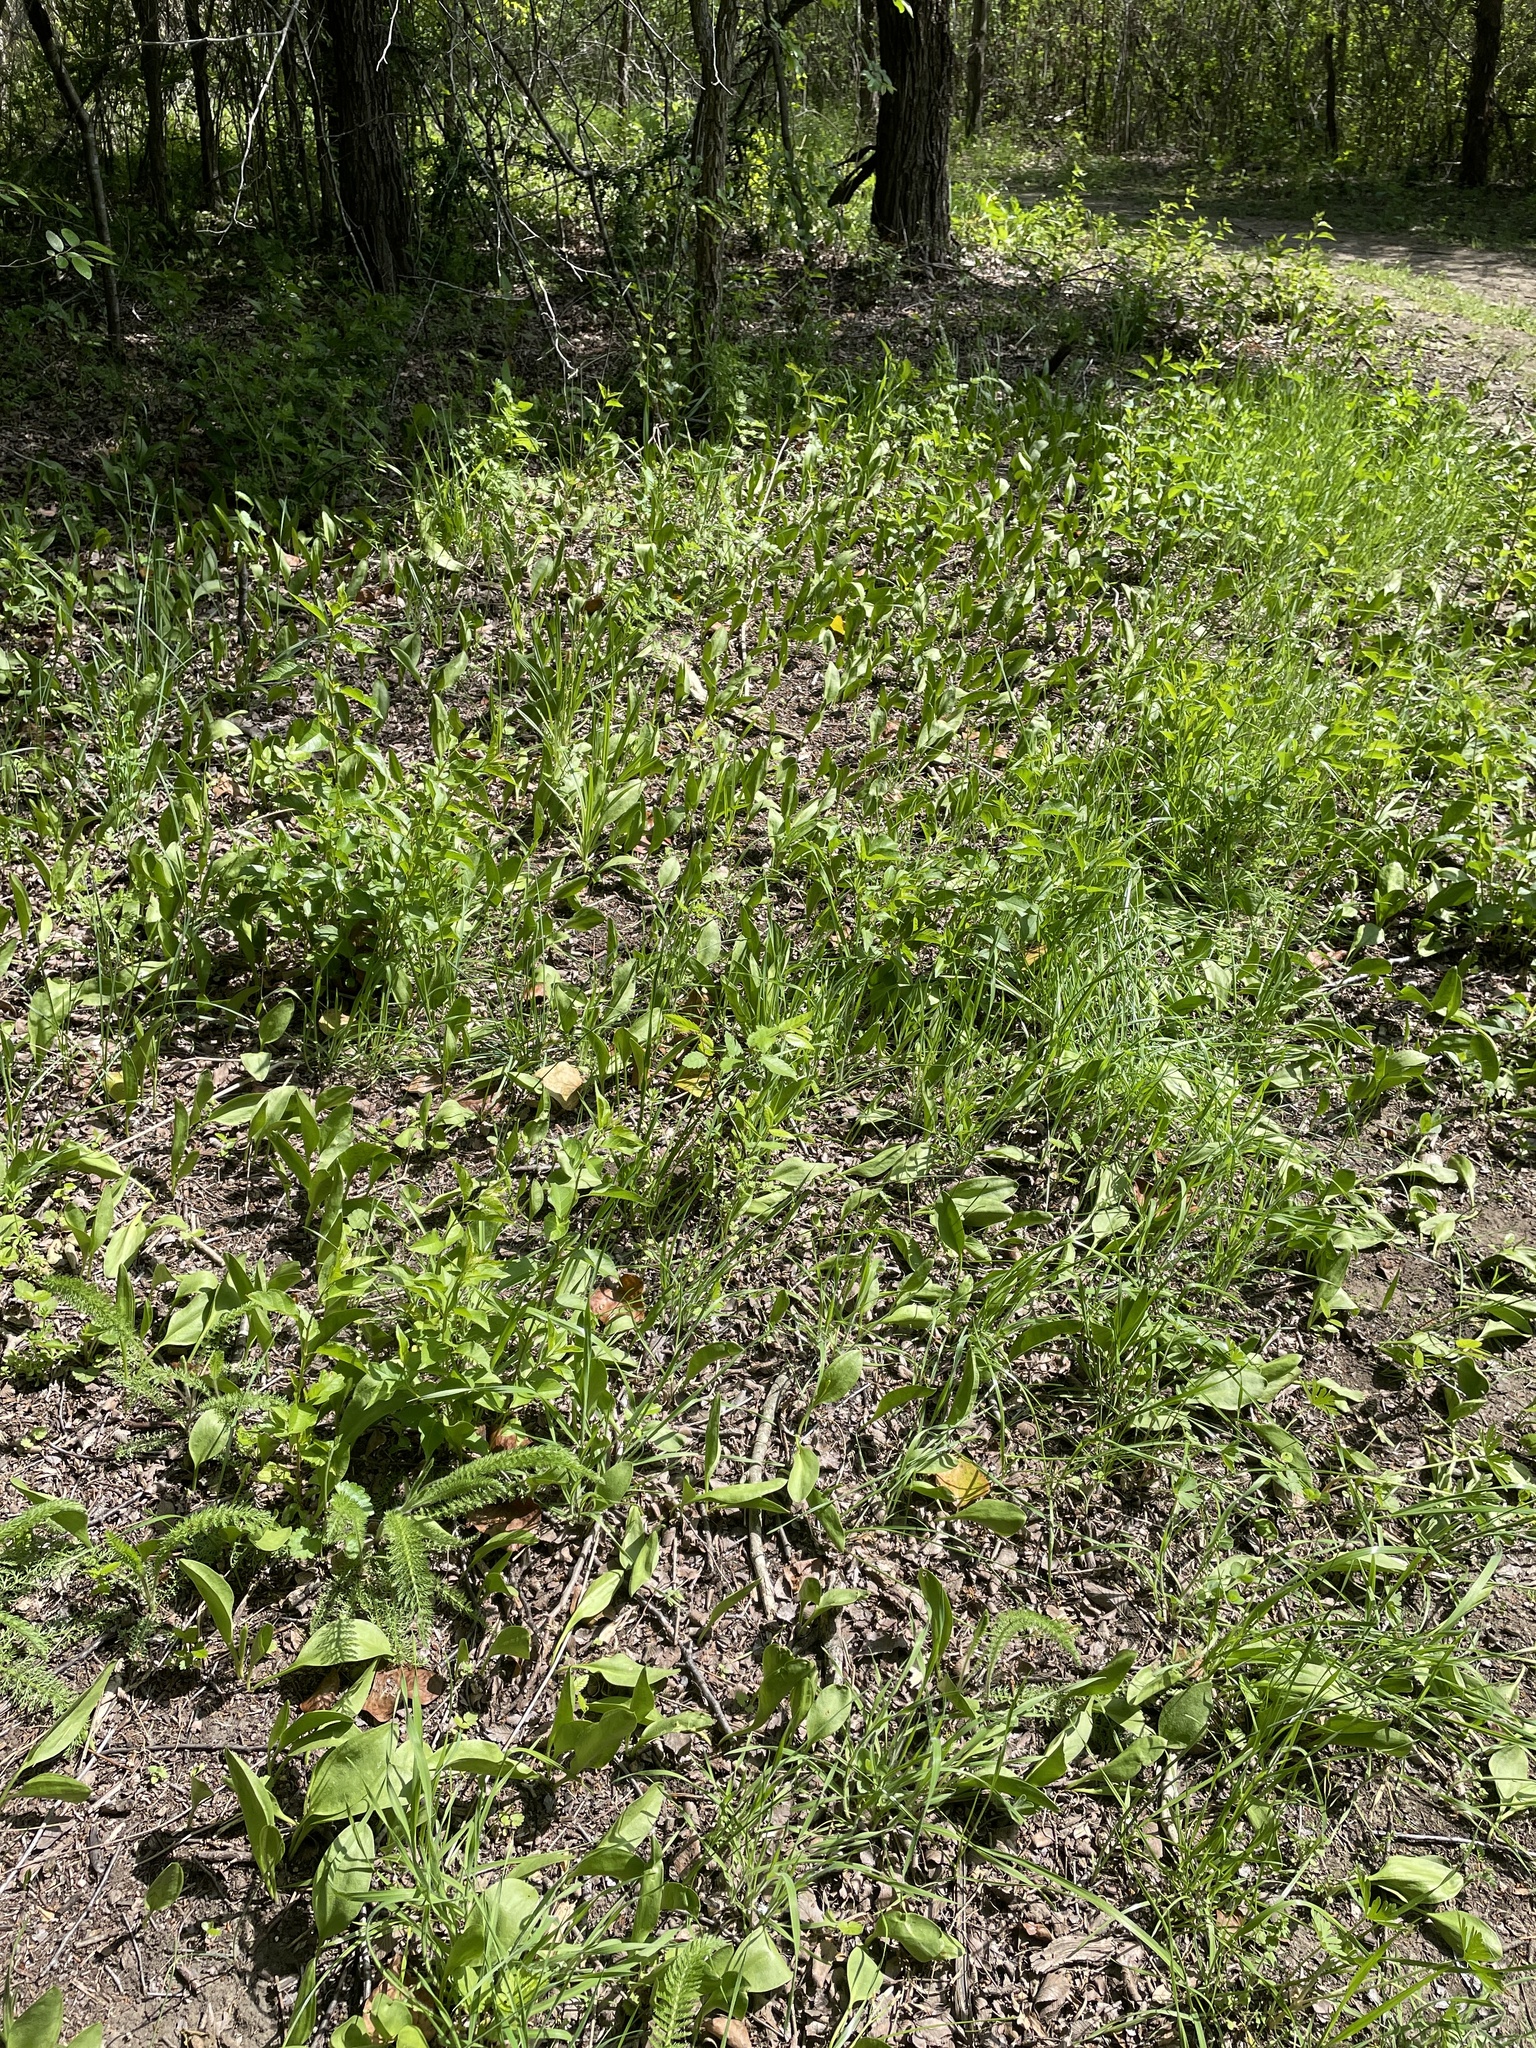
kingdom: Plantae
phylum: Tracheophyta
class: Polypodiopsida
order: Ophioglossales
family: Ophioglossaceae
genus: Ophioglossum
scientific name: Ophioglossum engelmannii
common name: Limestone adder's-tongue
